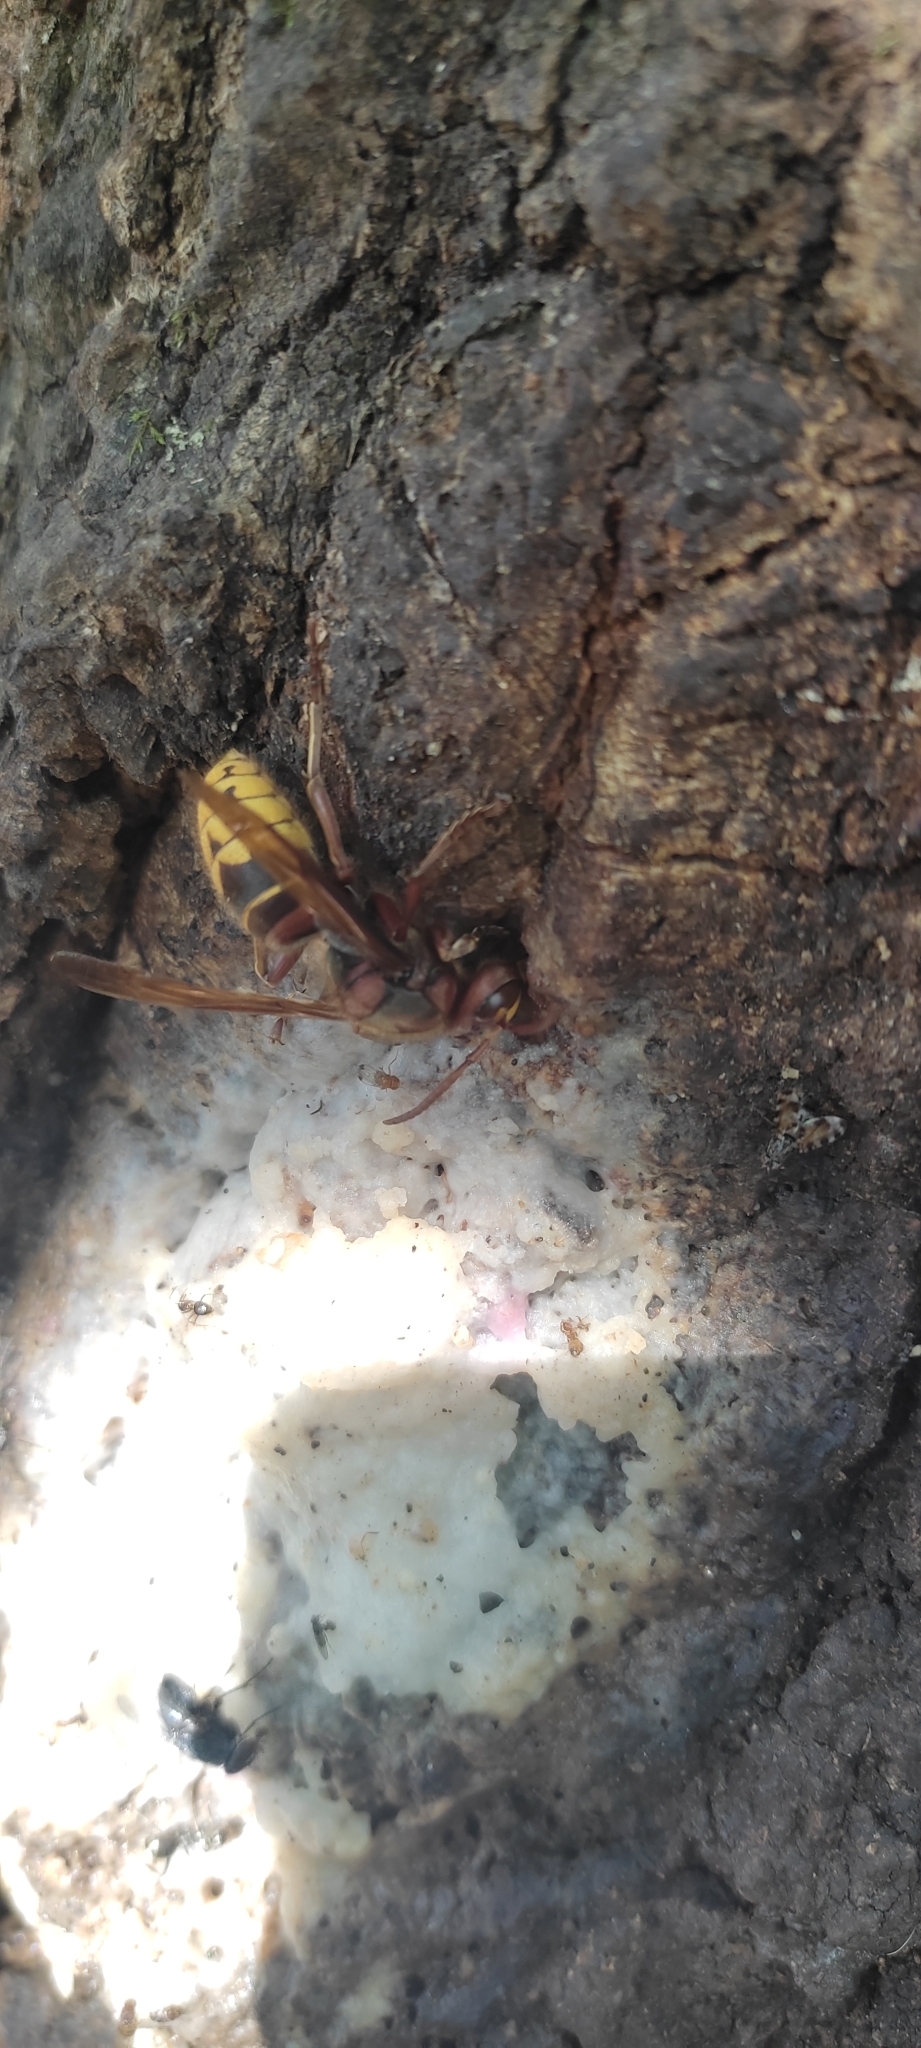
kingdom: Animalia
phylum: Arthropoda
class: Insecta
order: Hymenoptera
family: Vespidae
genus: Vespa
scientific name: Vespa crabro
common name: Hornet
